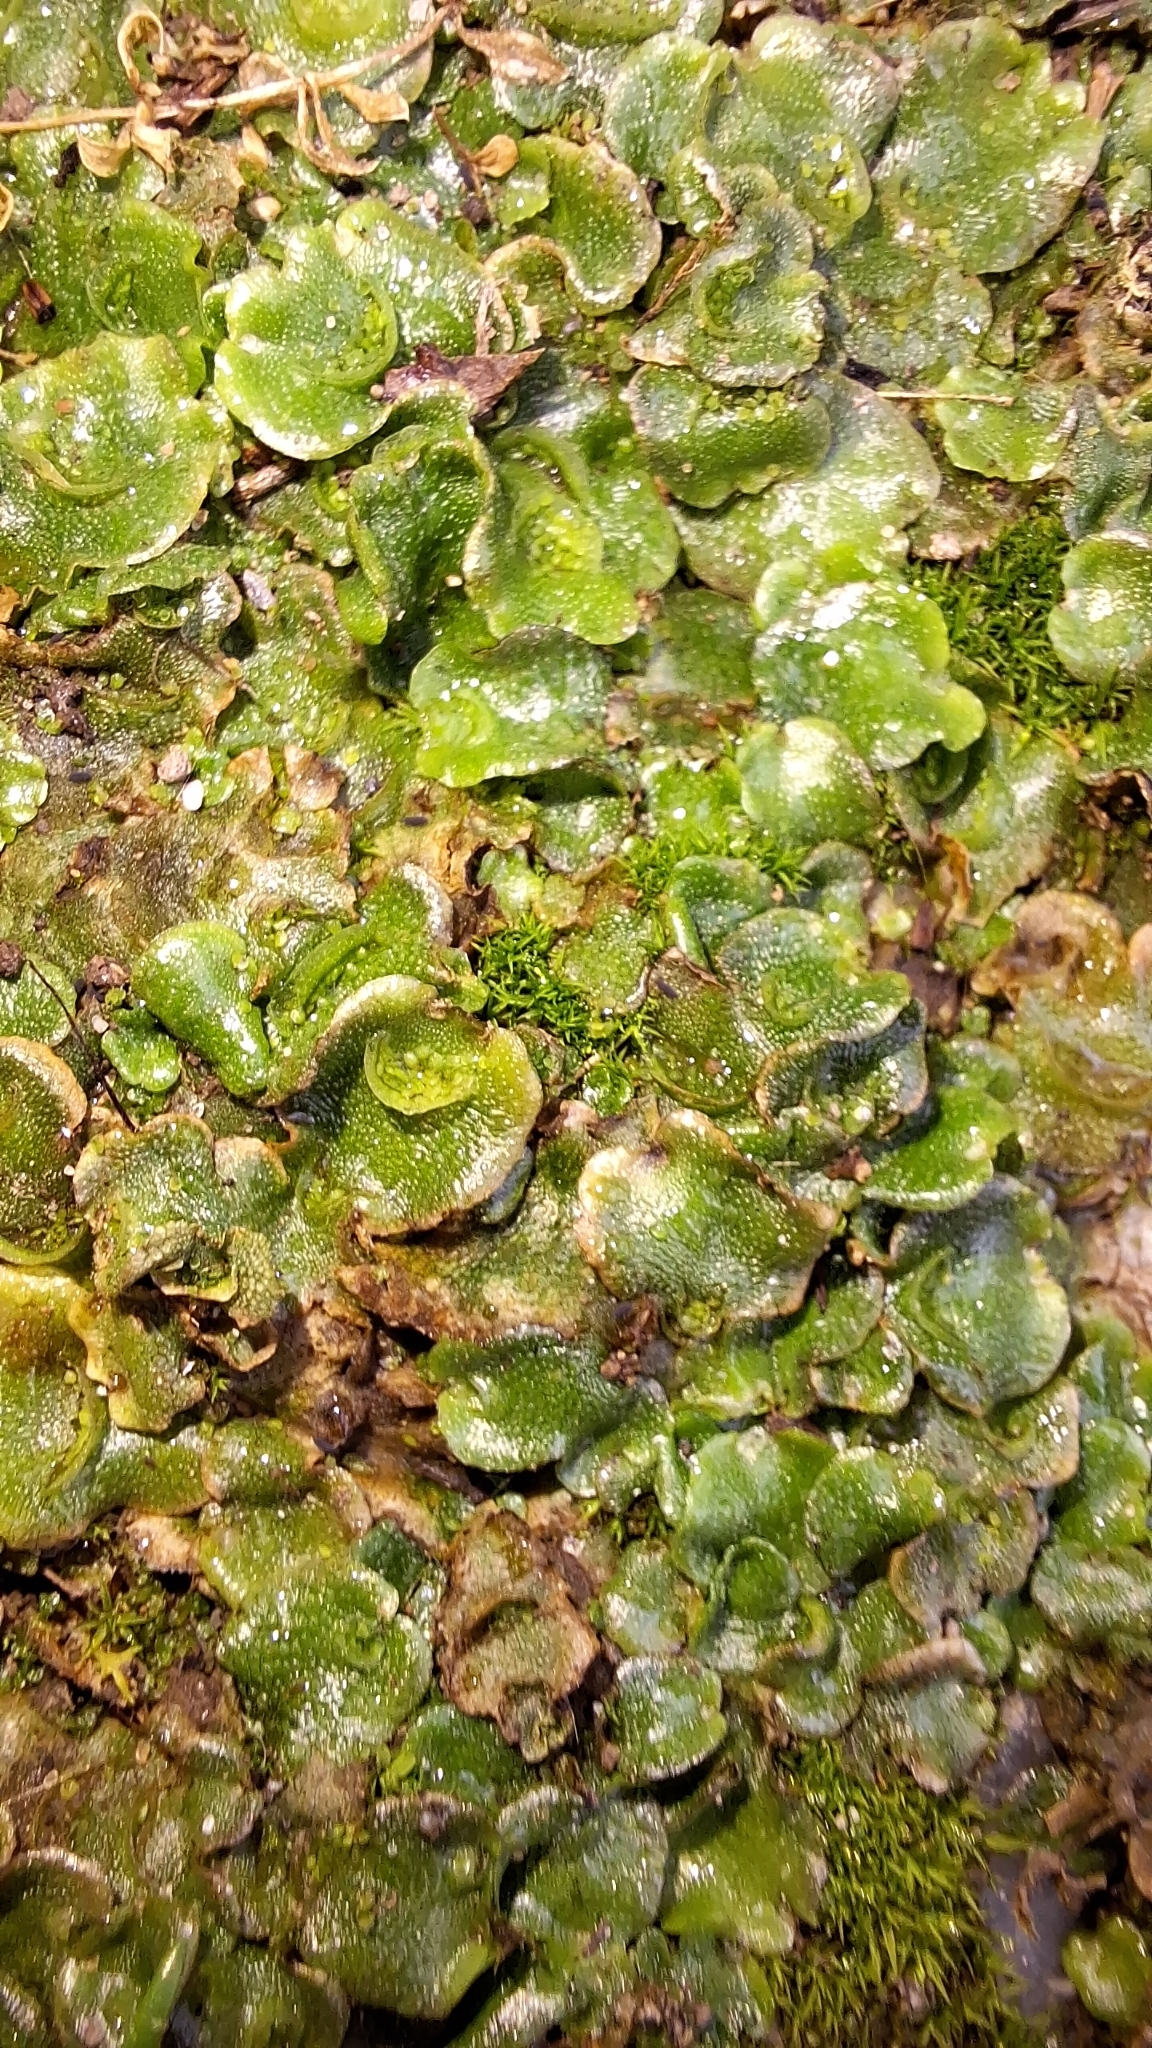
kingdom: Plantae
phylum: Marchantiophyta
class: Marchantiopsida
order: Lunulariales
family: Lunulariaceae
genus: Lunularia
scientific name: Lunularia cruciata
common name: Crescent-cup liverwort
